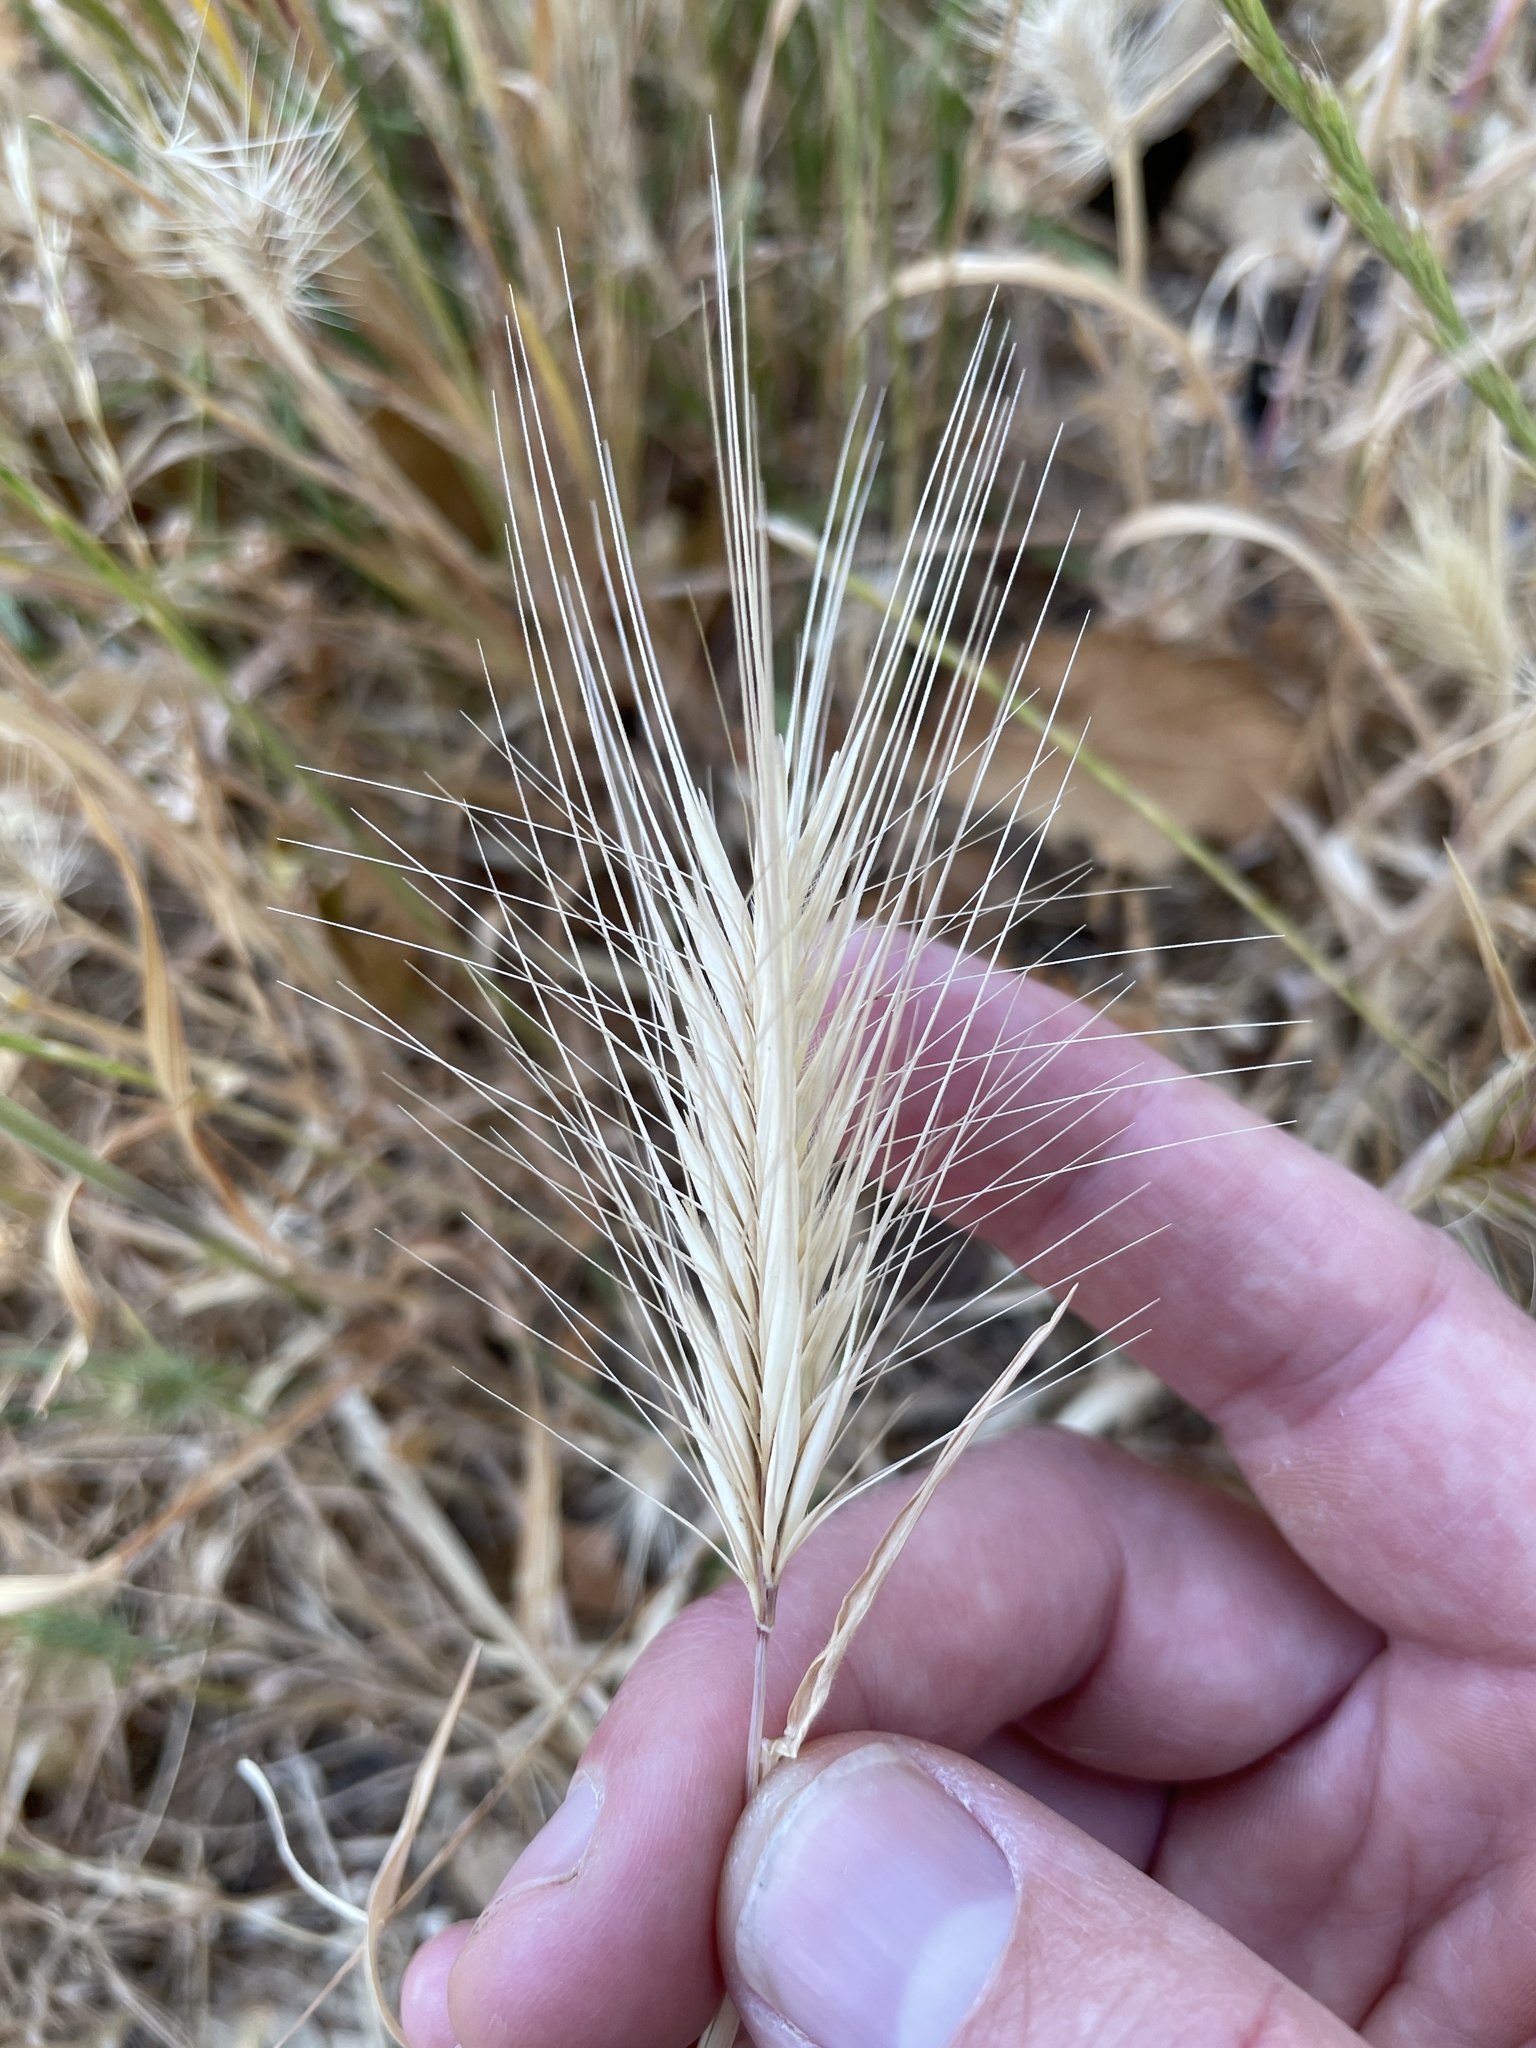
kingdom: Plantae
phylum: Tracheophyta
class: Liliopsida
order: Poales
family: Poaceae
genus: Hordeum
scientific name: Hordeum murinum
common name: Wall barley
